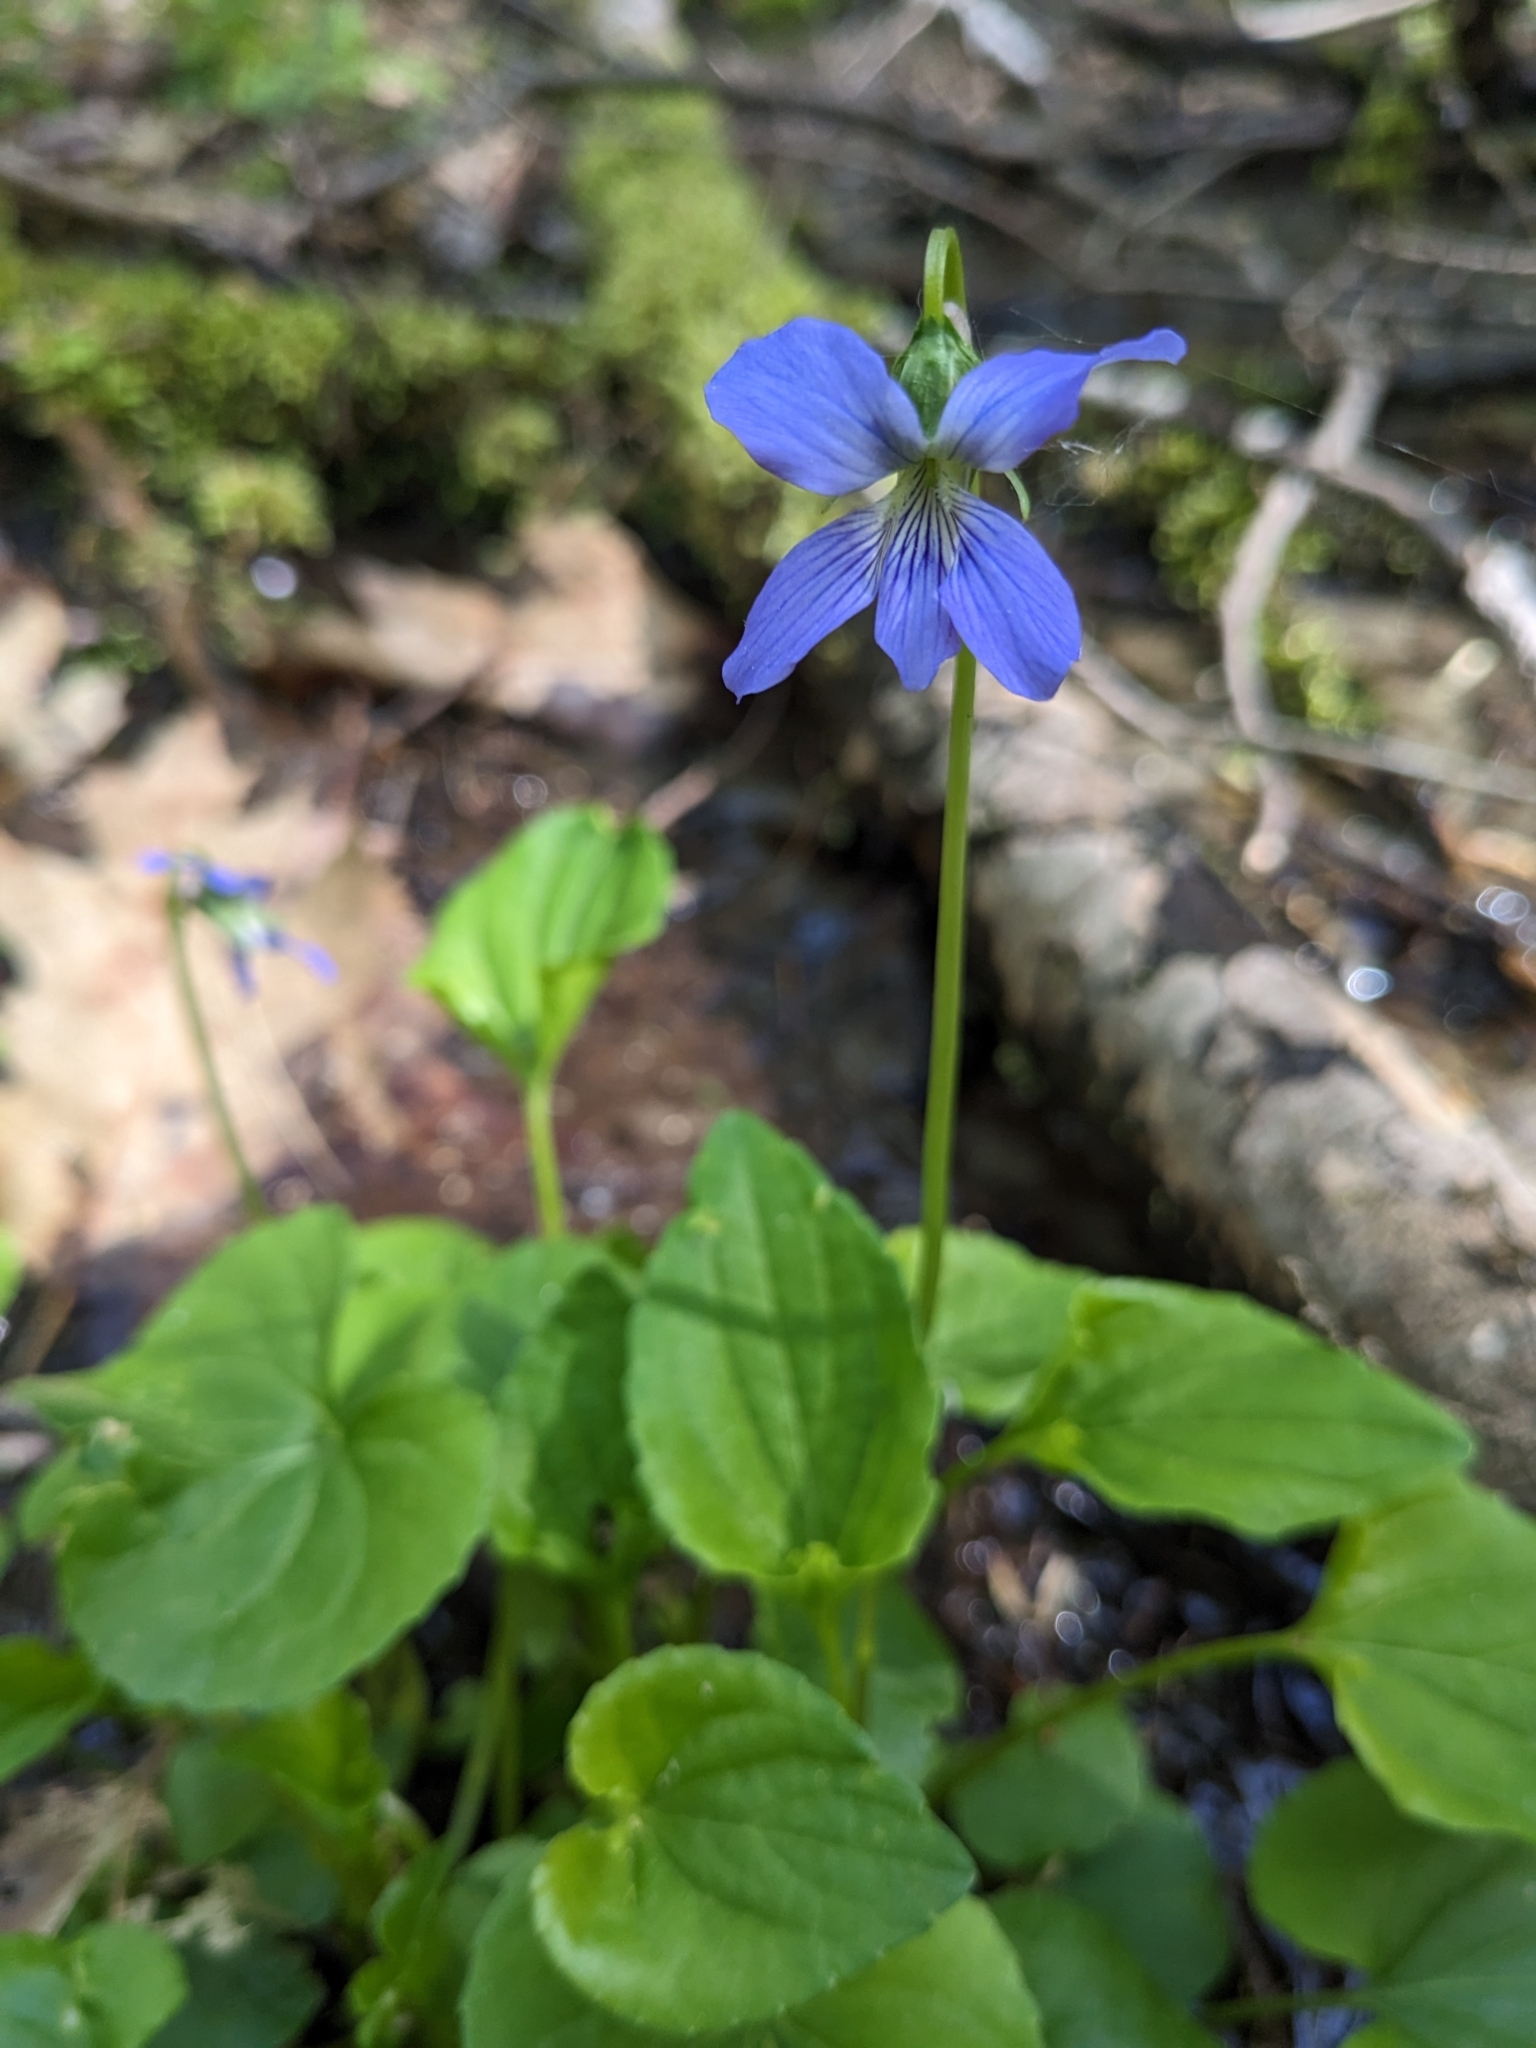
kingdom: Plantae
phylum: Tracheophyta
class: Magnoliopsida
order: Malpighiales
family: Violaceae
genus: Viola
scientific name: Viola cucullata
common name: Marsh blue violet
